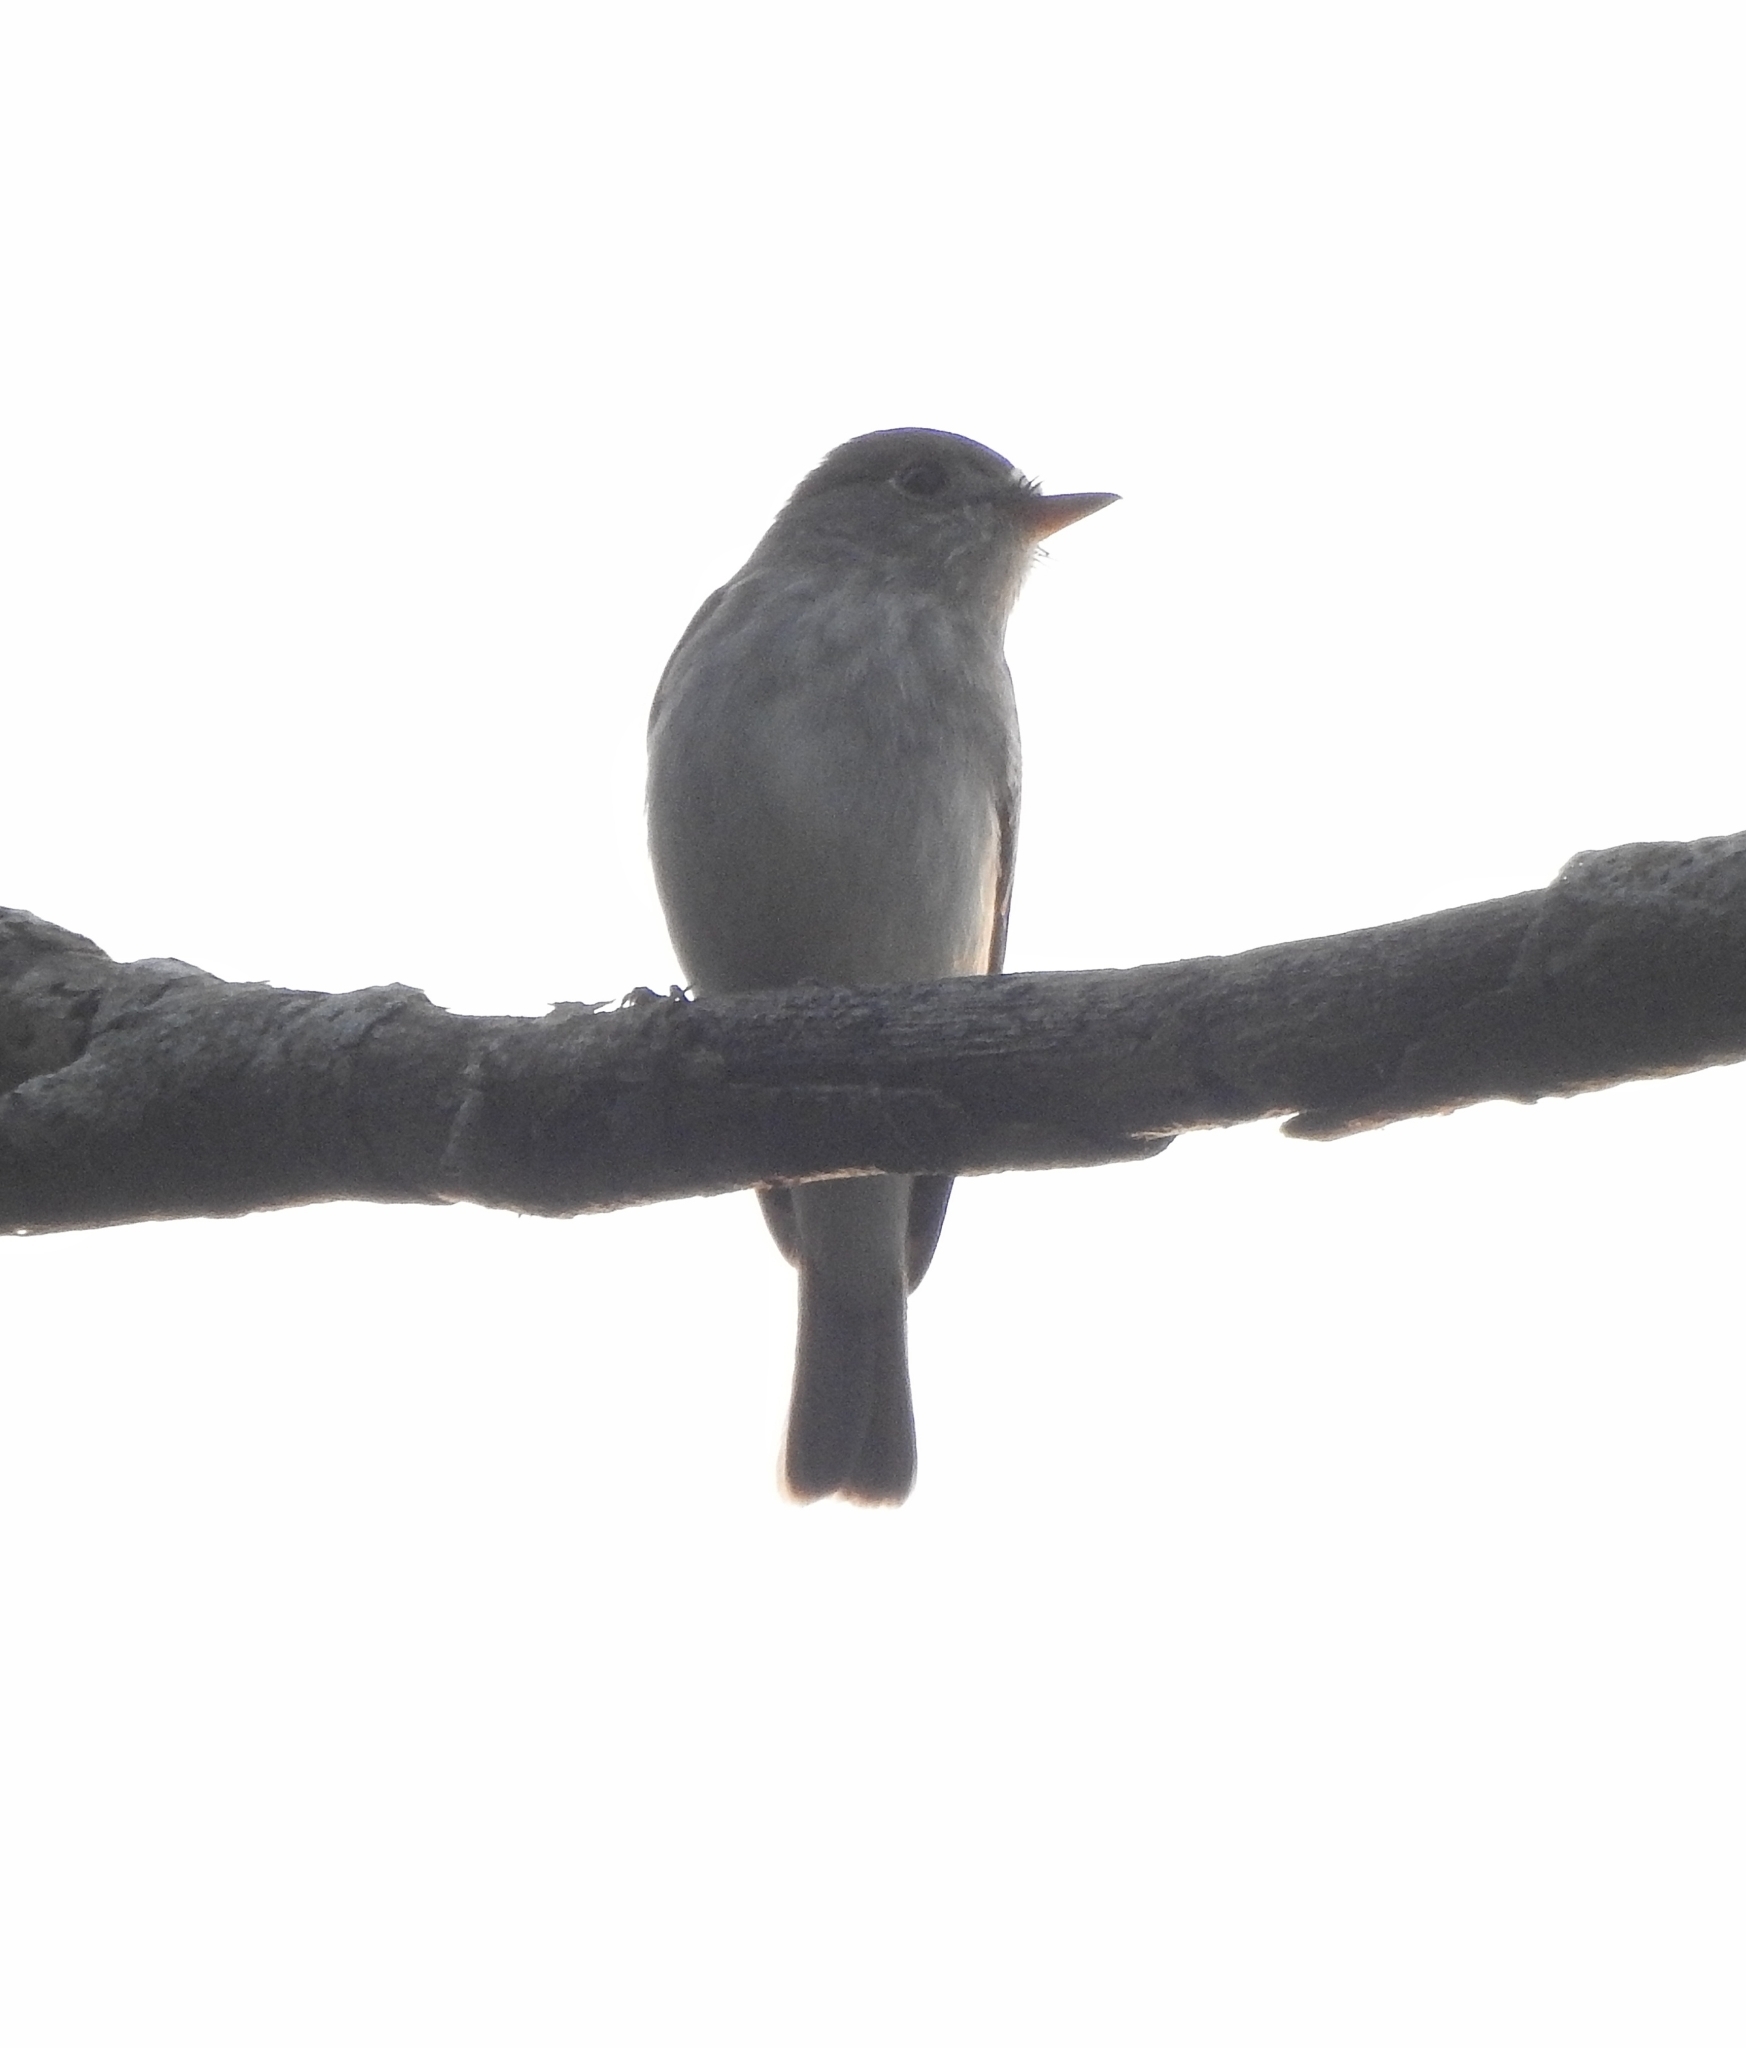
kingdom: Animalia
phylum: Chordata
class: Aves
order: Passeriformes
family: Muscicapidae
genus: Muscicapa
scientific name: Muscicapa latirostris
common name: Asian brown flycatcher
